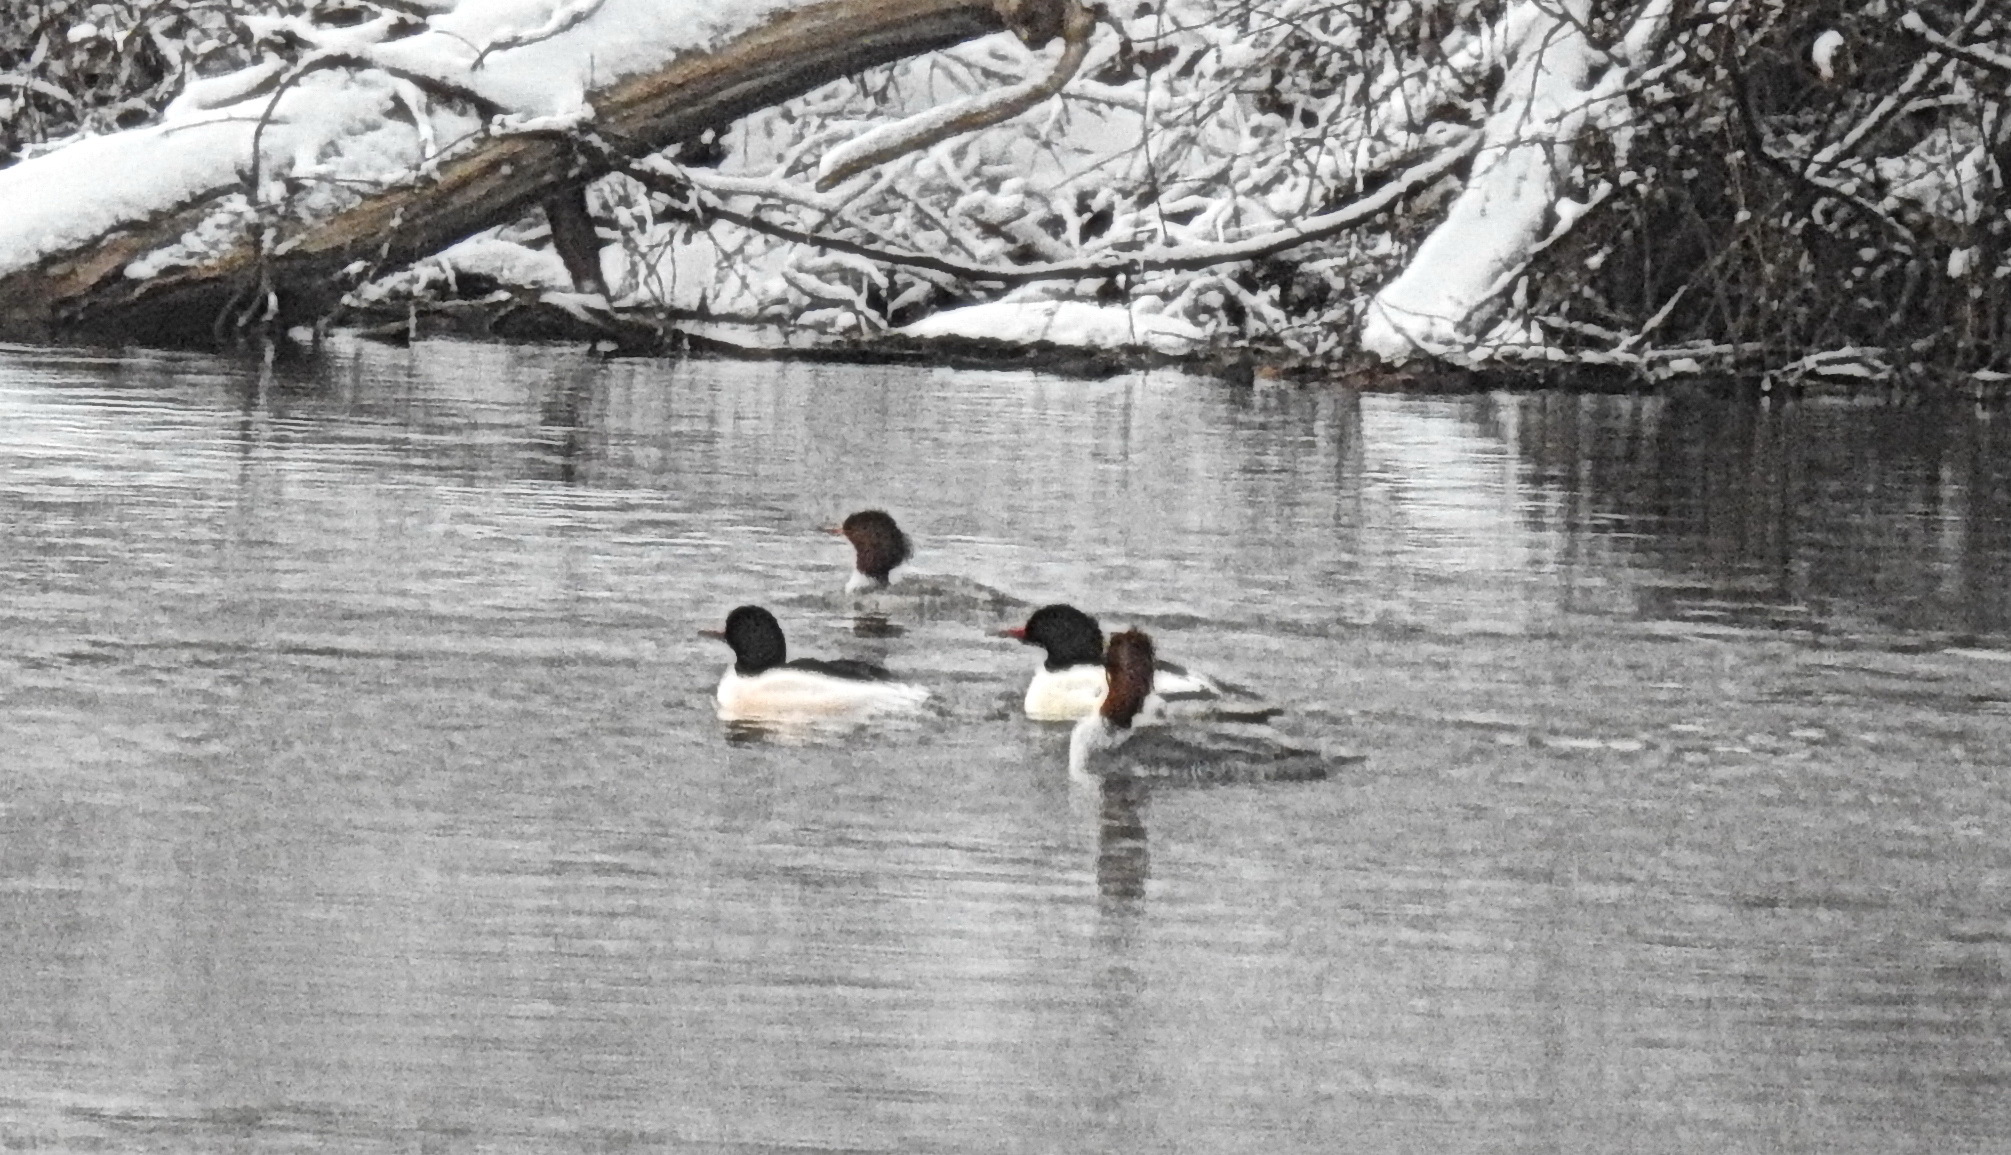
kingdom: Animalia
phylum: Chordata
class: Aves
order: Anseriformes
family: Anatidae
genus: Mergus
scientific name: Mergus merganser
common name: Common merganser
